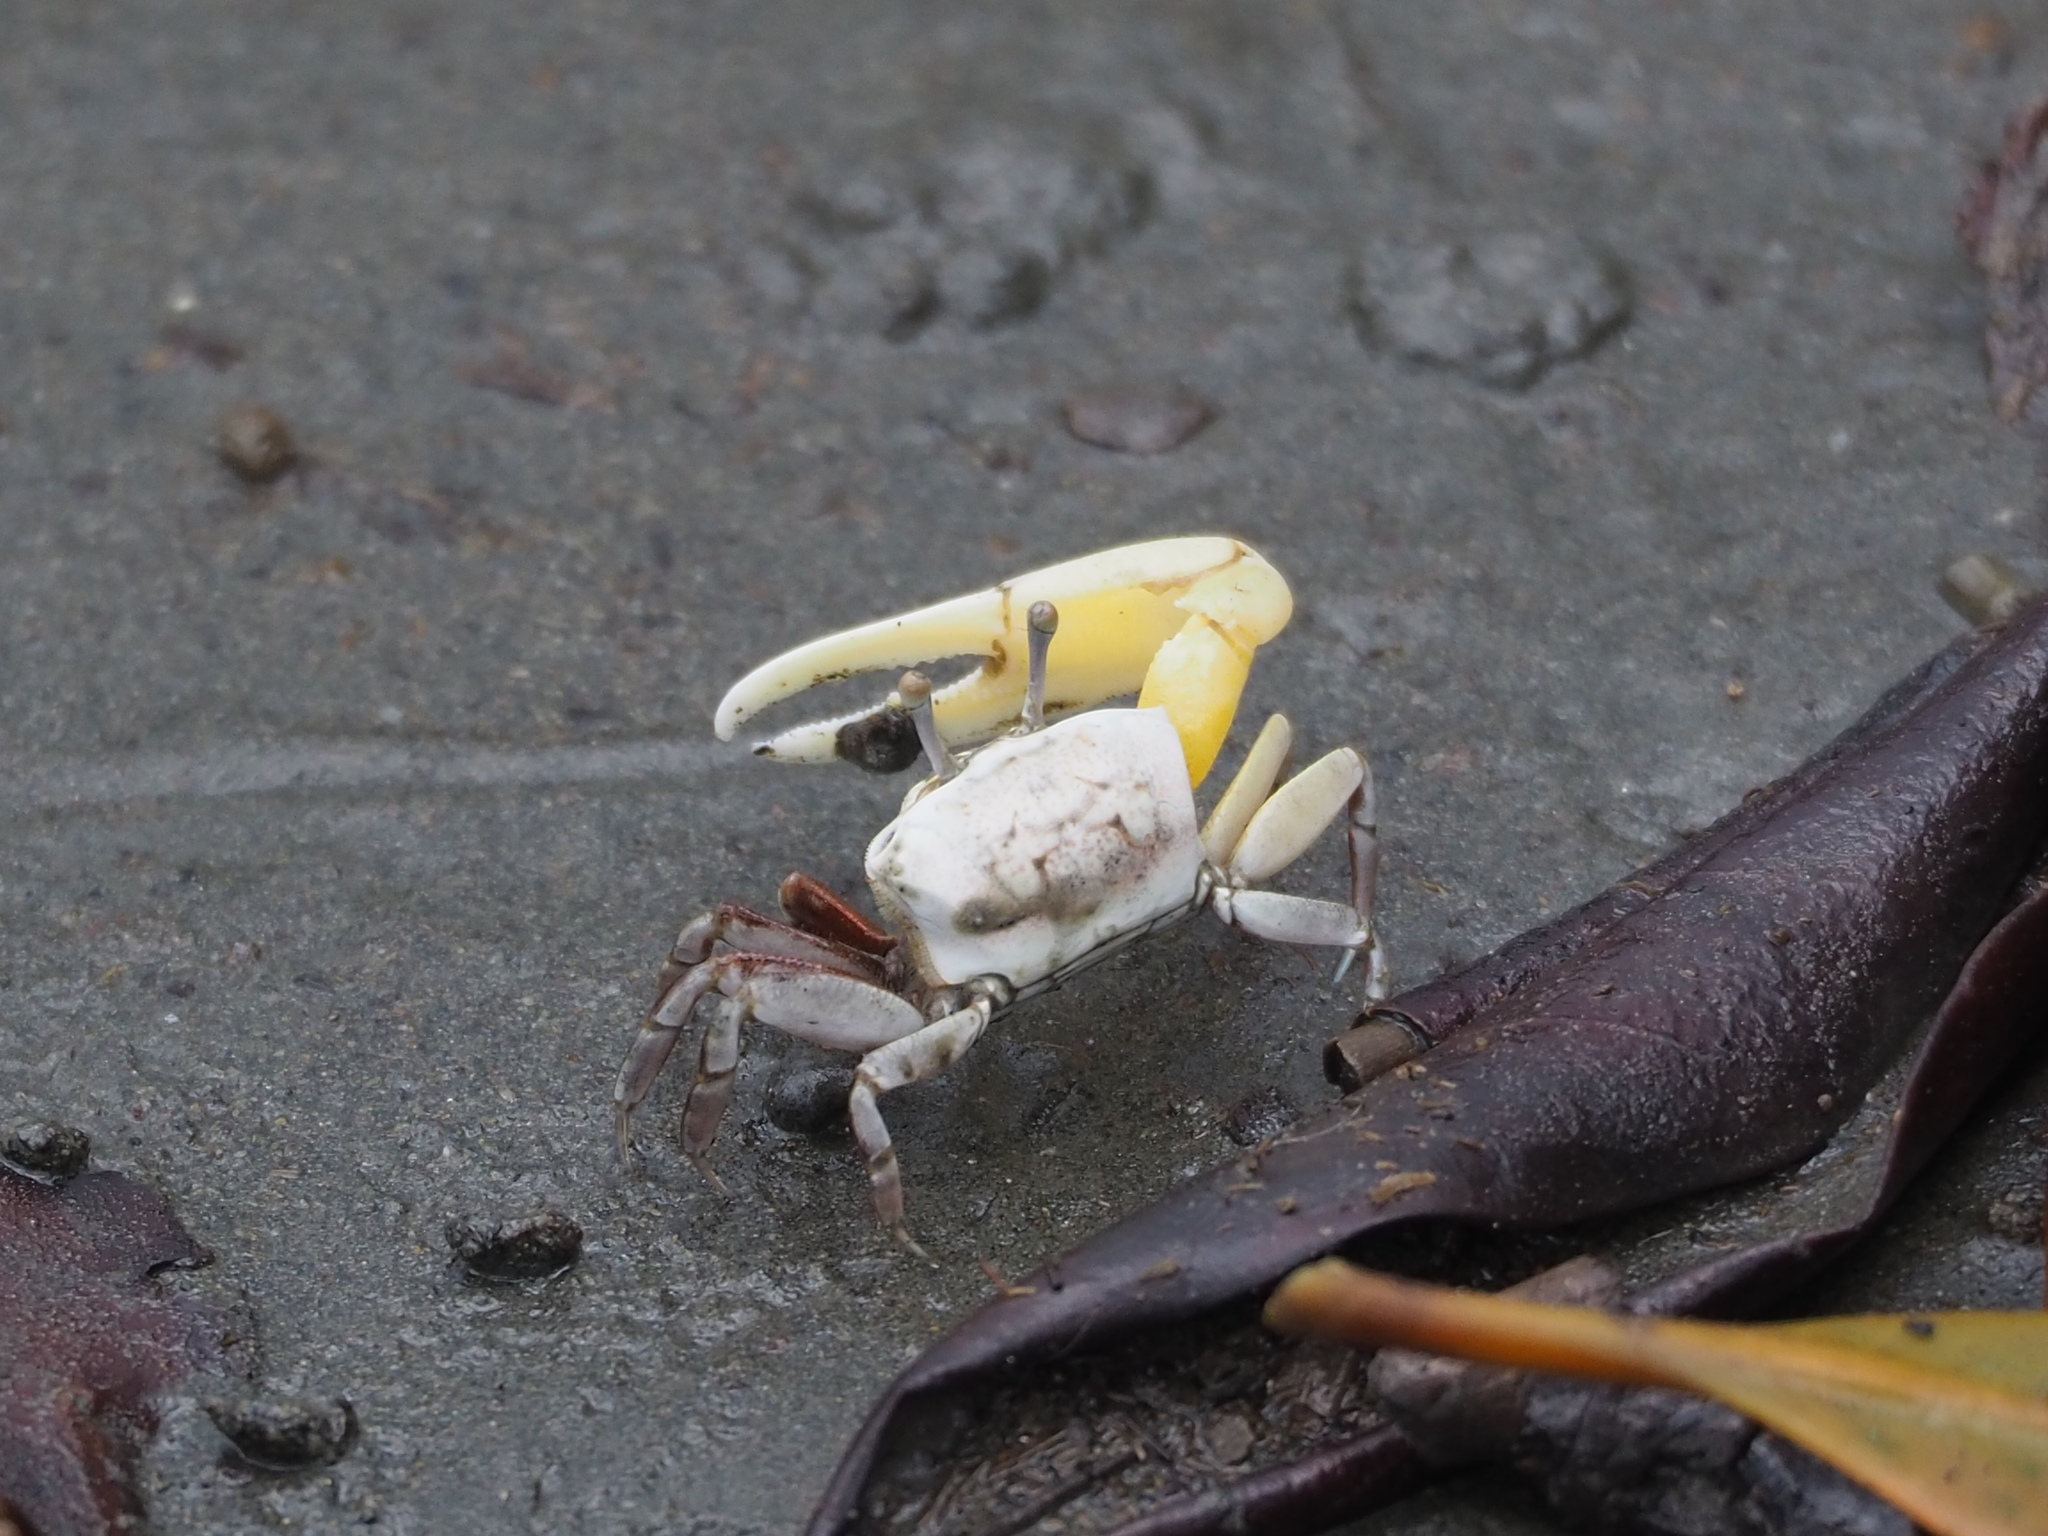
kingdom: Animalia
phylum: Arthropoda
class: Malacostraca
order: Decapoda
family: Ocypodidae
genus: Austruca
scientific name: Austruca lactea
